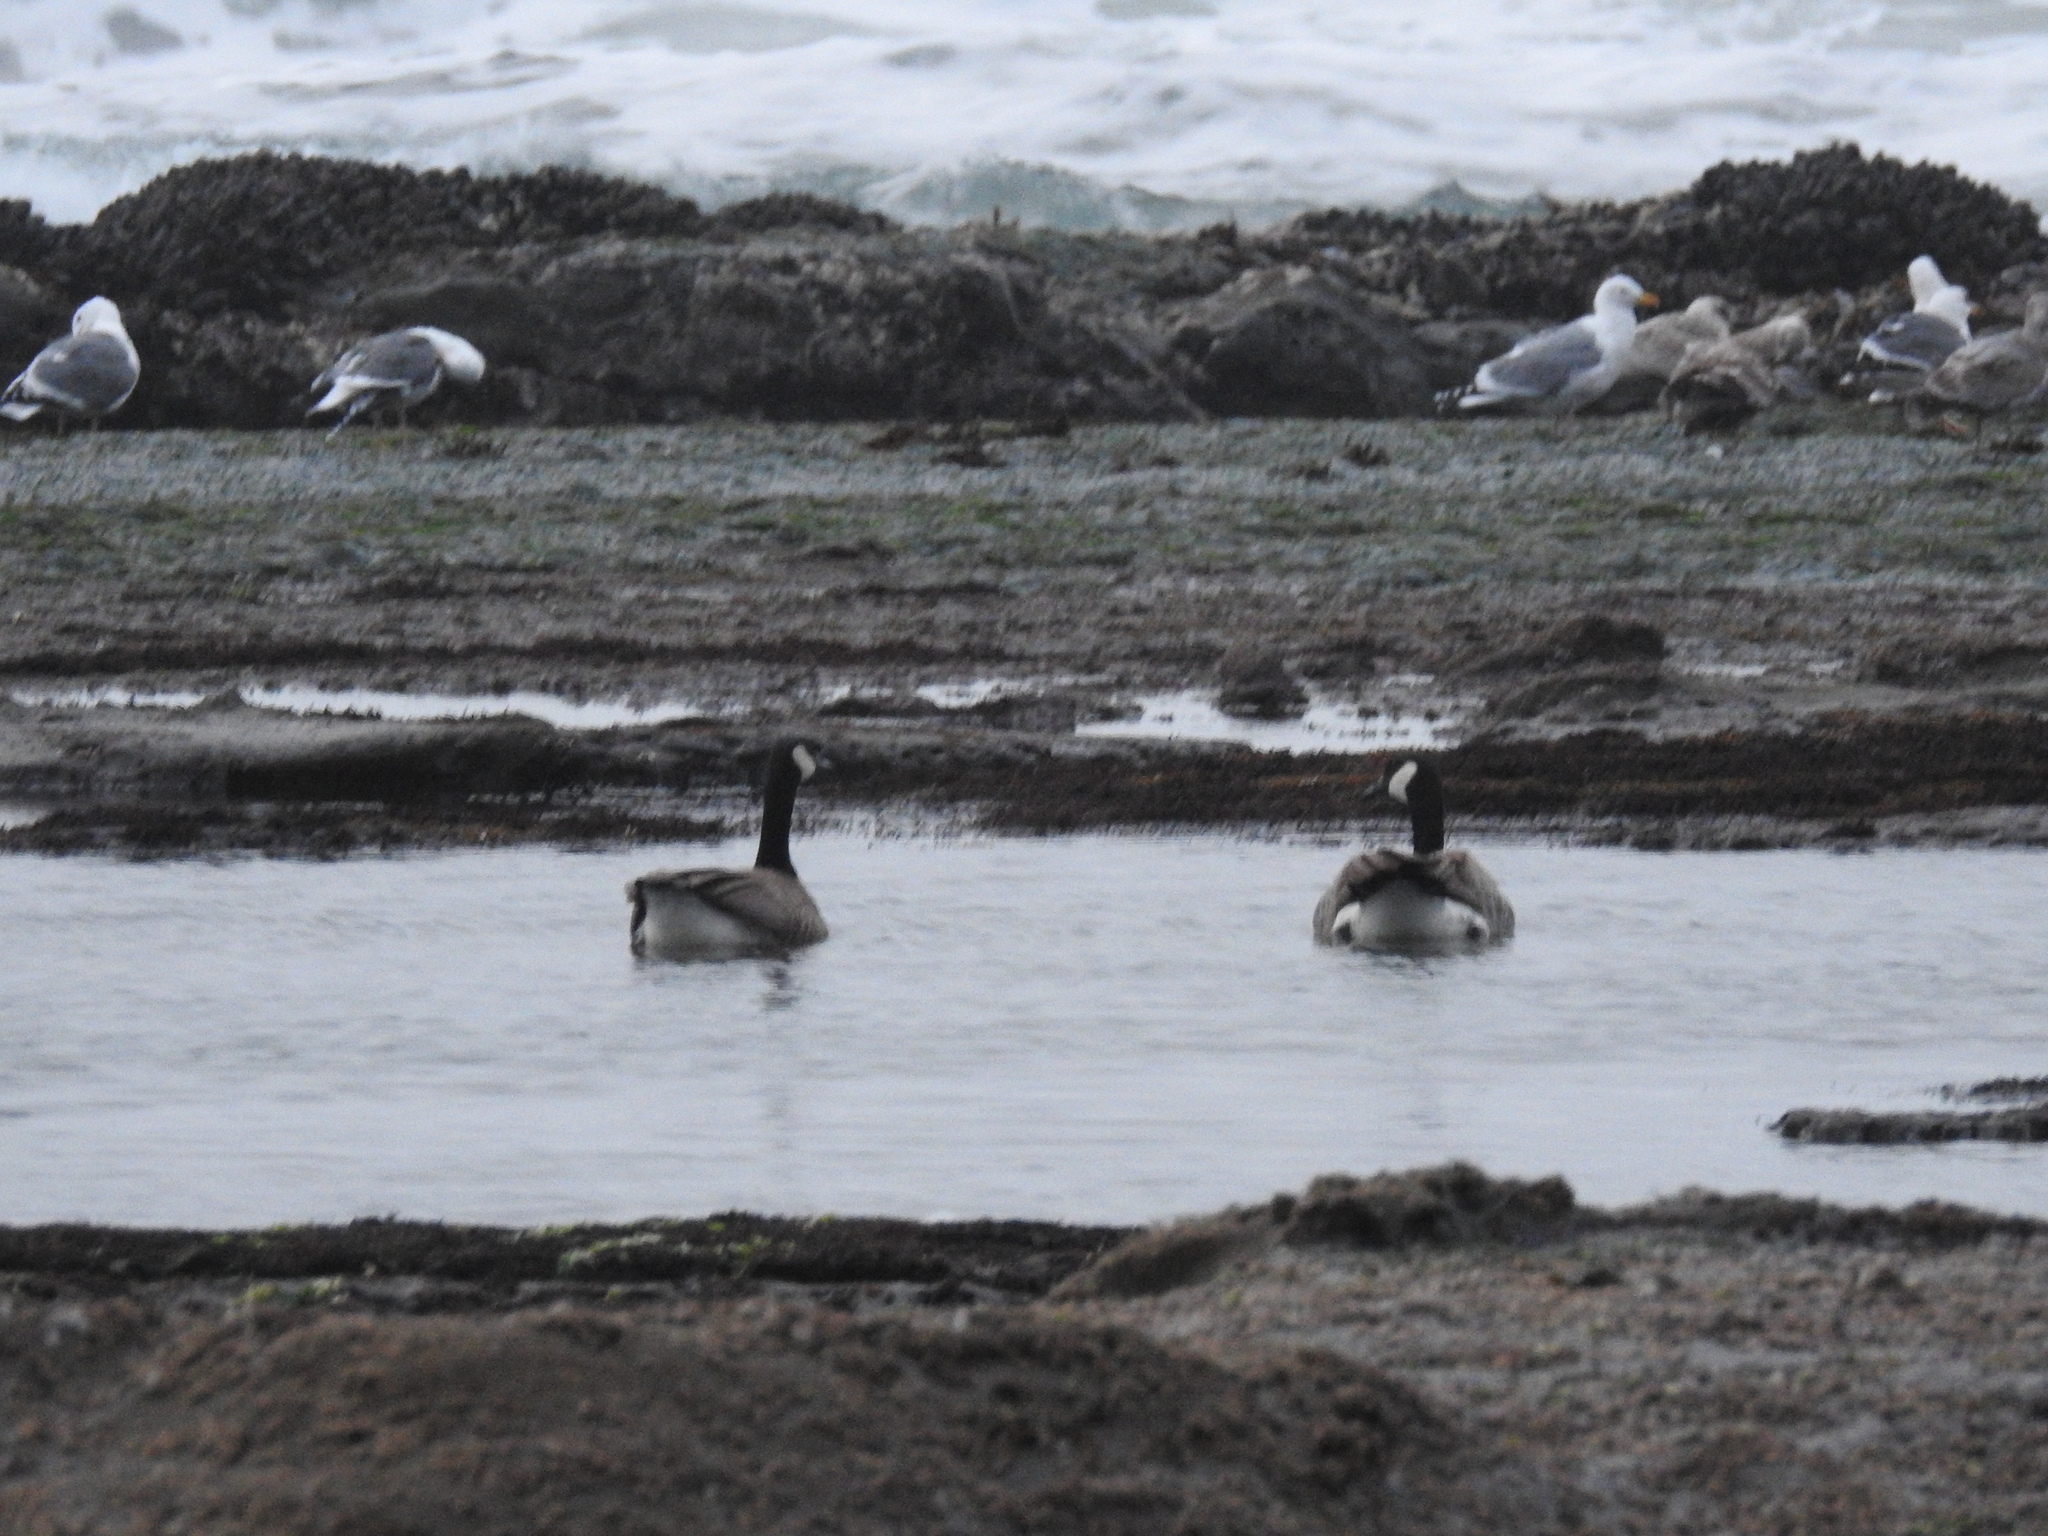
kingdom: Animalia
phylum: Chordata
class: Aves
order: Anseriformes
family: Anatidae
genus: Branta
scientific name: Branta canadensis
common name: Canada goose
